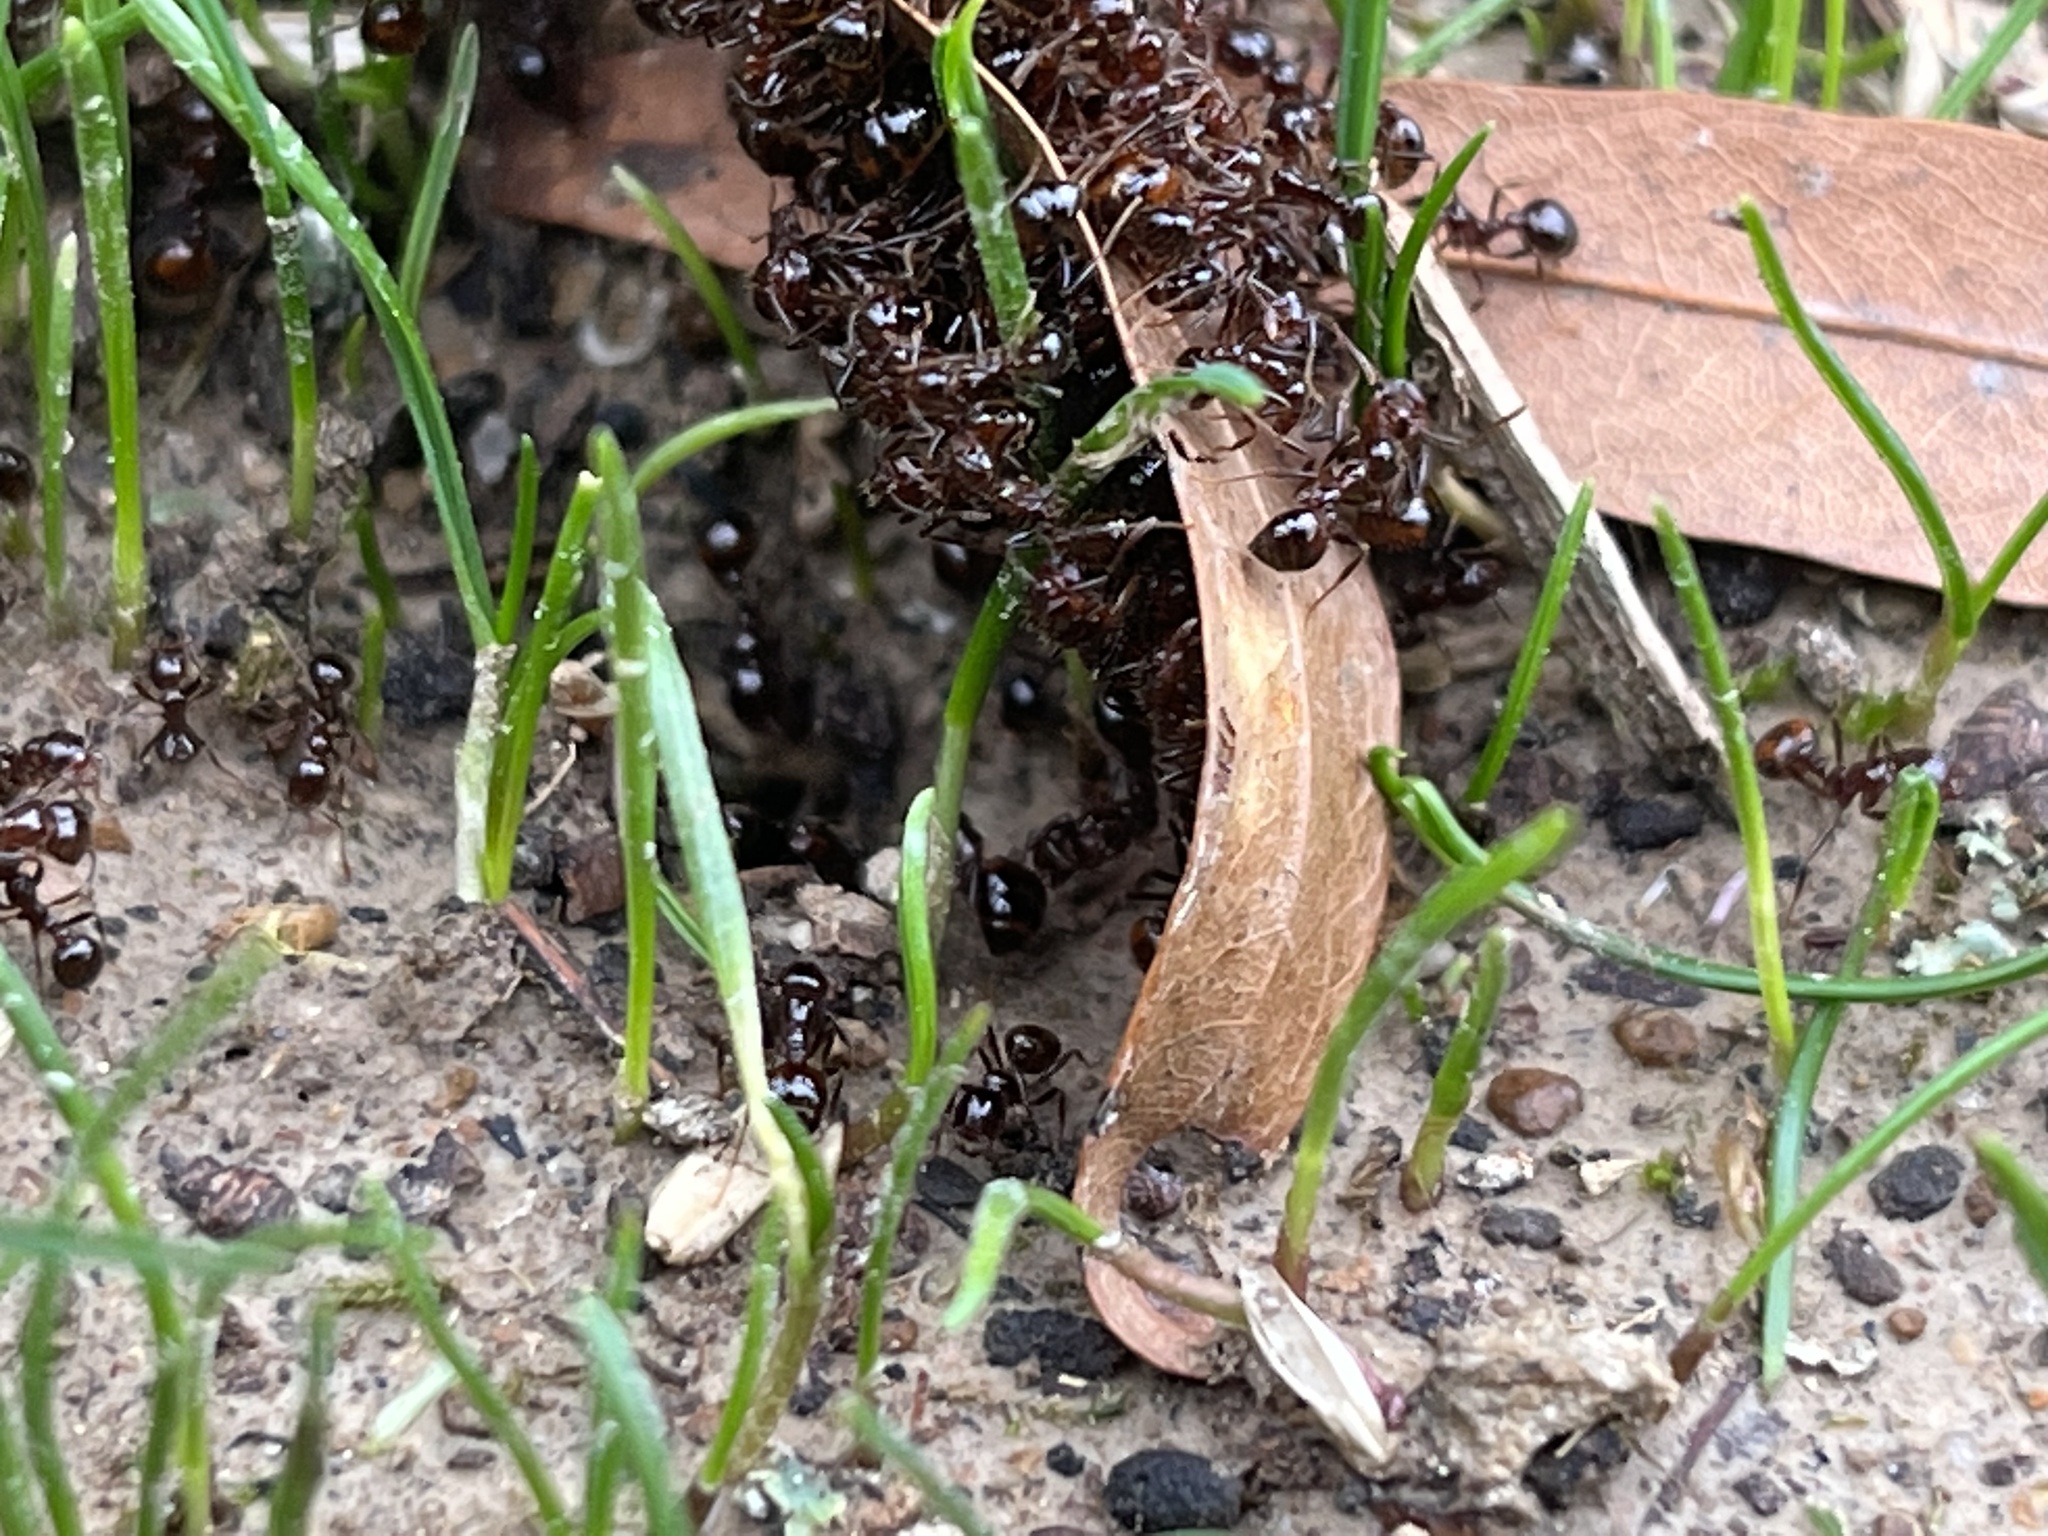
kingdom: Animalia
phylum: Arthropoda
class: Insecta
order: Hymenoptera
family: Formicidae
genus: Solenopsis
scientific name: Solenopsis
